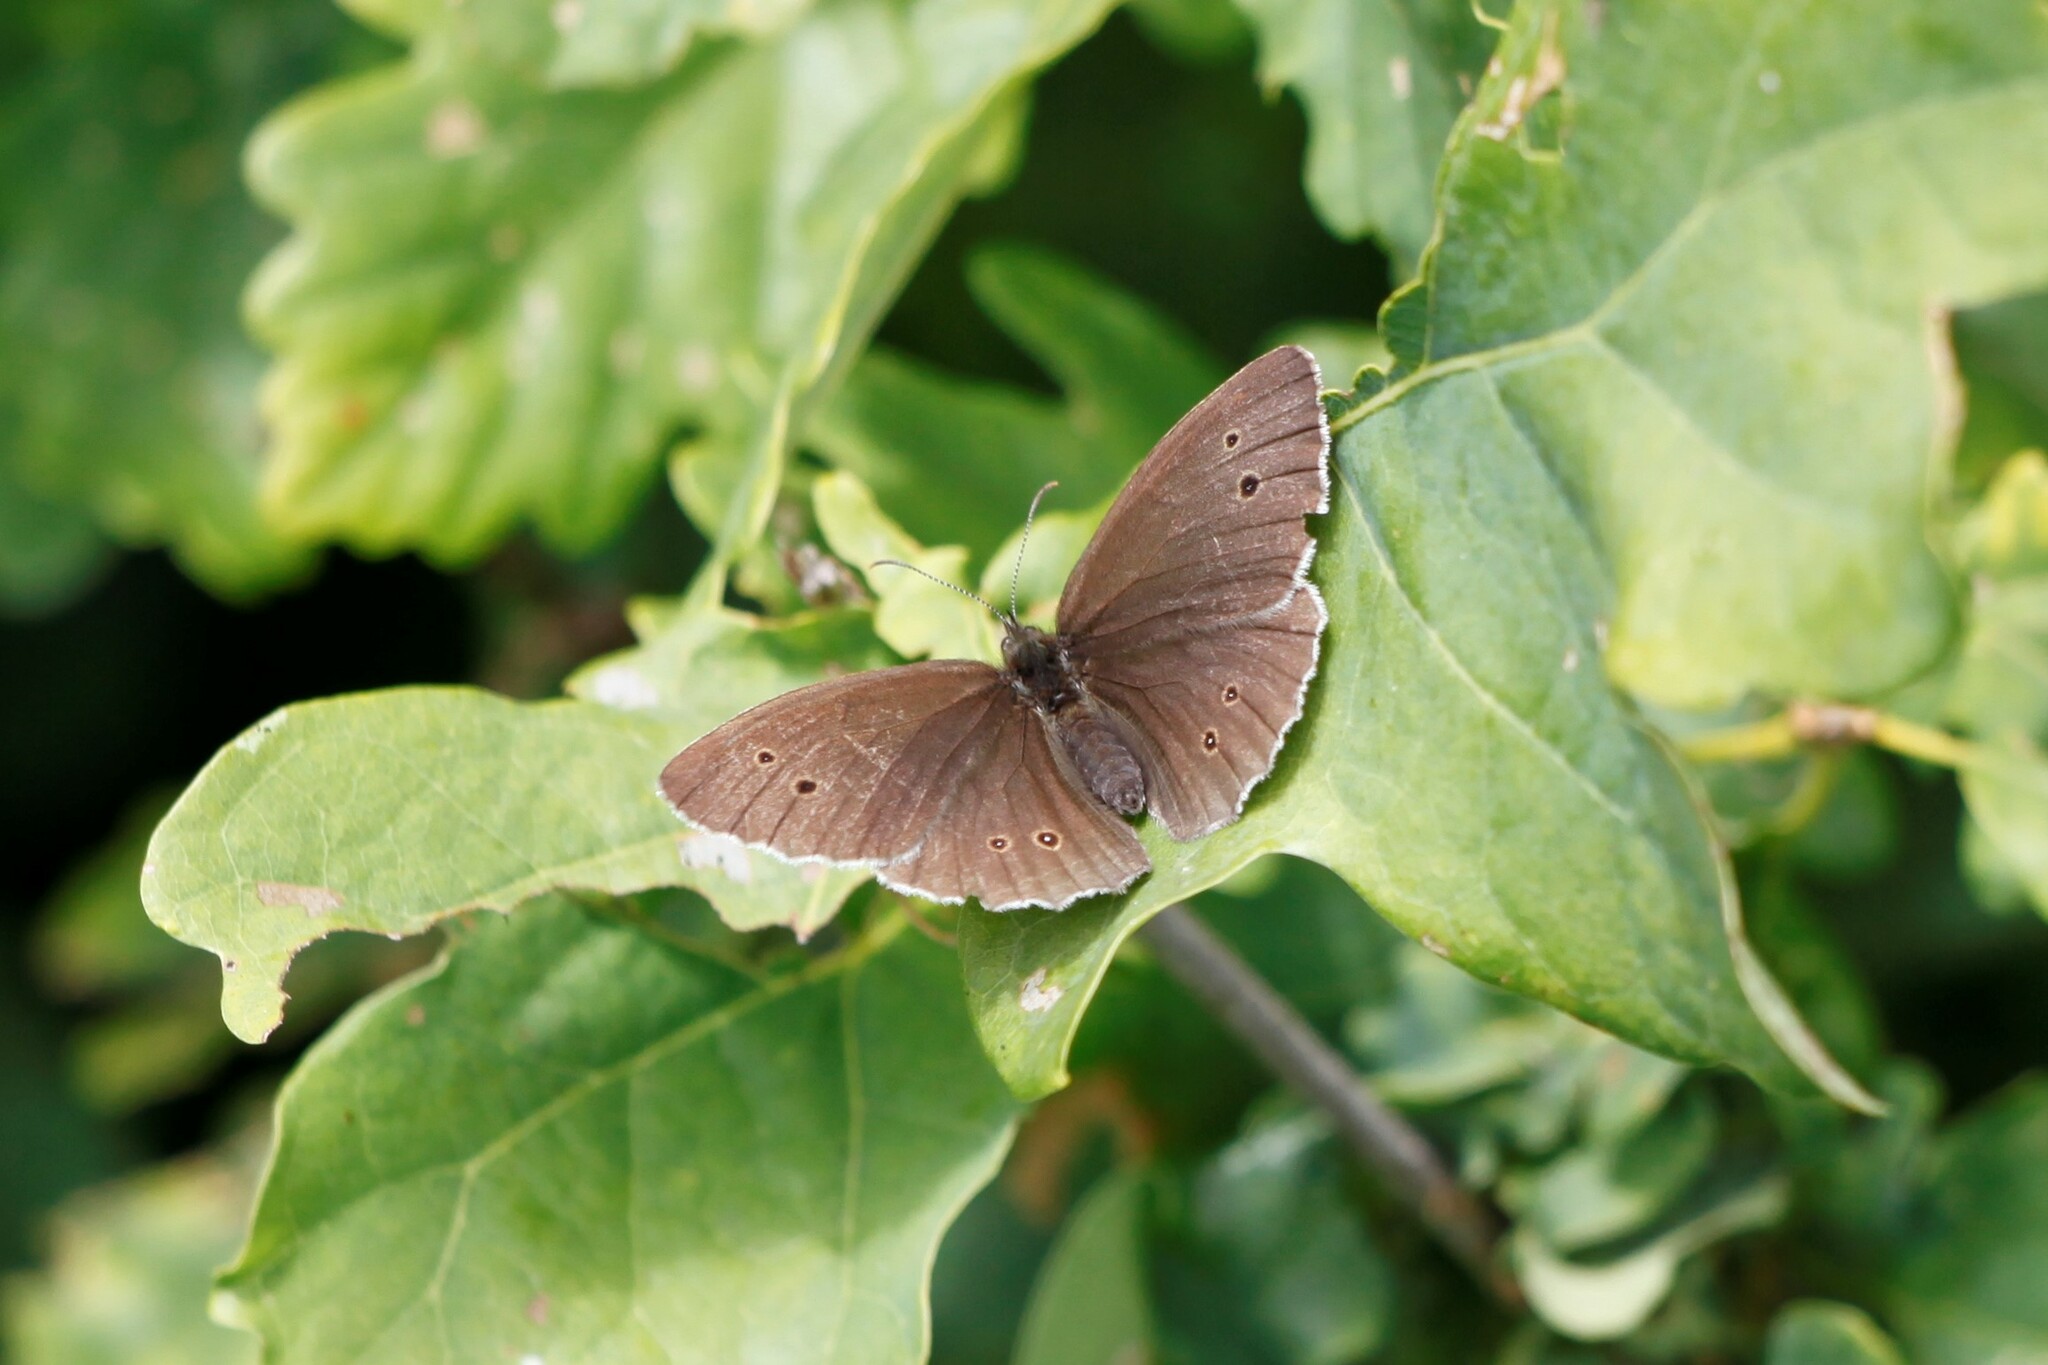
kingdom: Animalia
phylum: Arthropoda
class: Insecta
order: Lepidoptera
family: Nymphalidae
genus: Aphantopus
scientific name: Aphantopus hyperantus
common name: Ringlet
